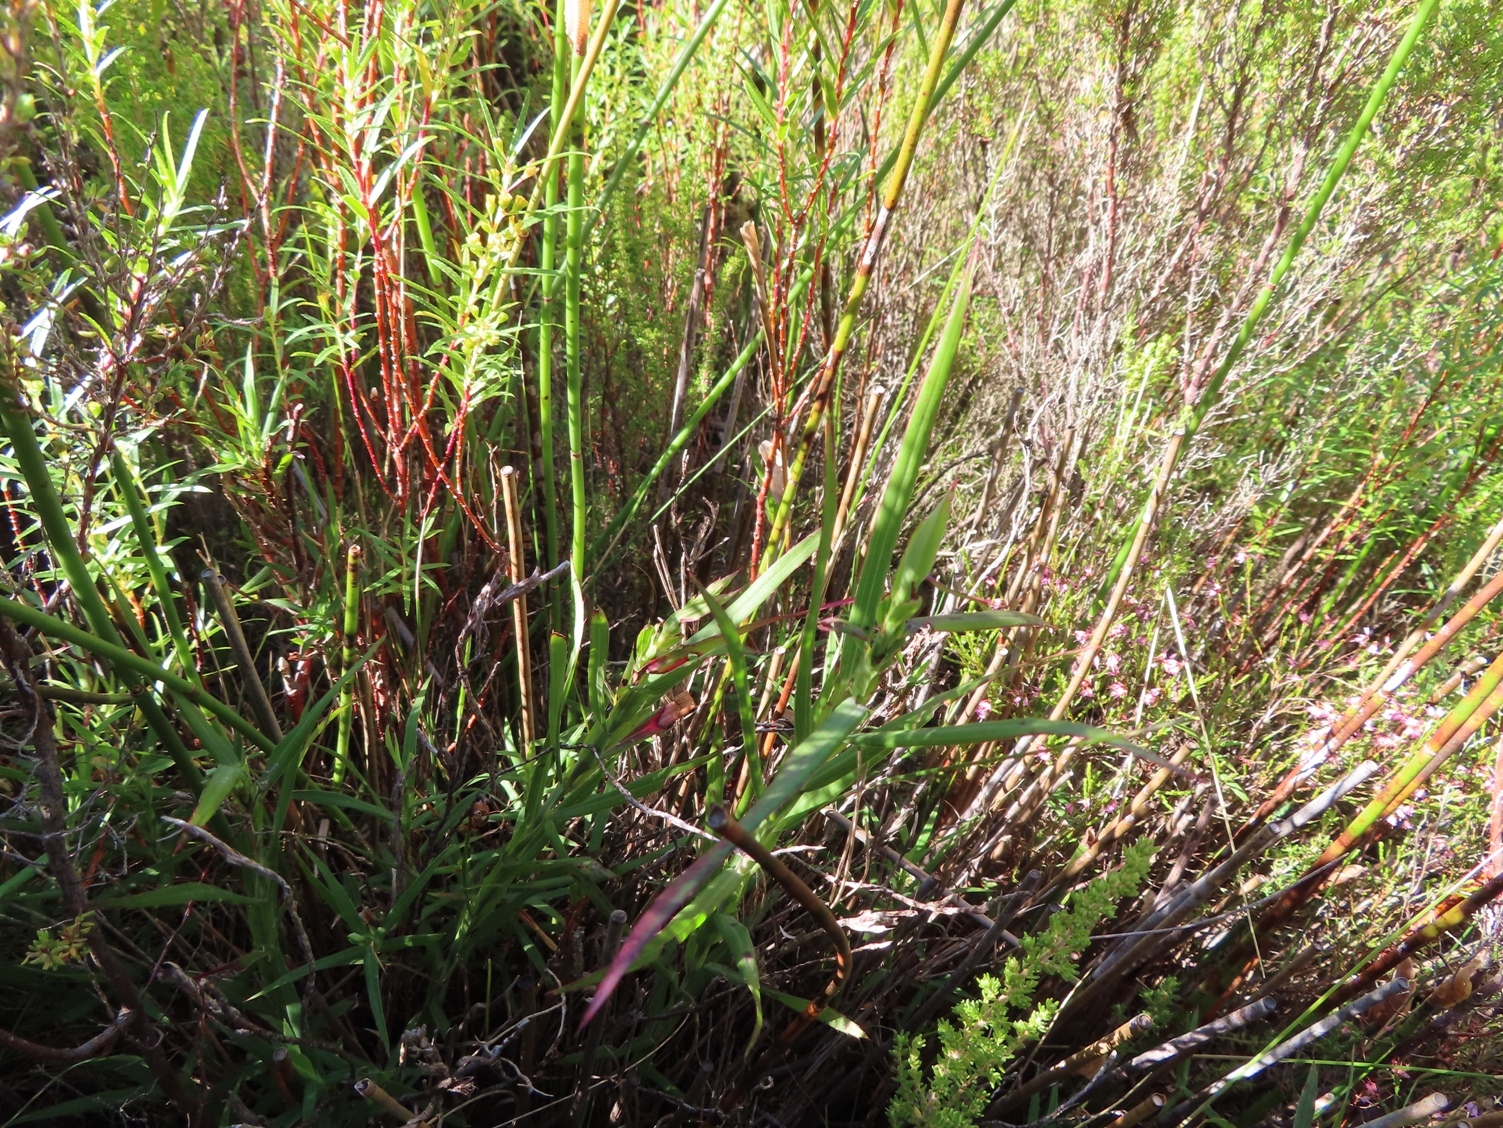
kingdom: Plantae
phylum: Tracheophyta
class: Magnoliopsida
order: Rosales
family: Rosaceae
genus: Cliffortia
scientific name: Cliffortia graminea
